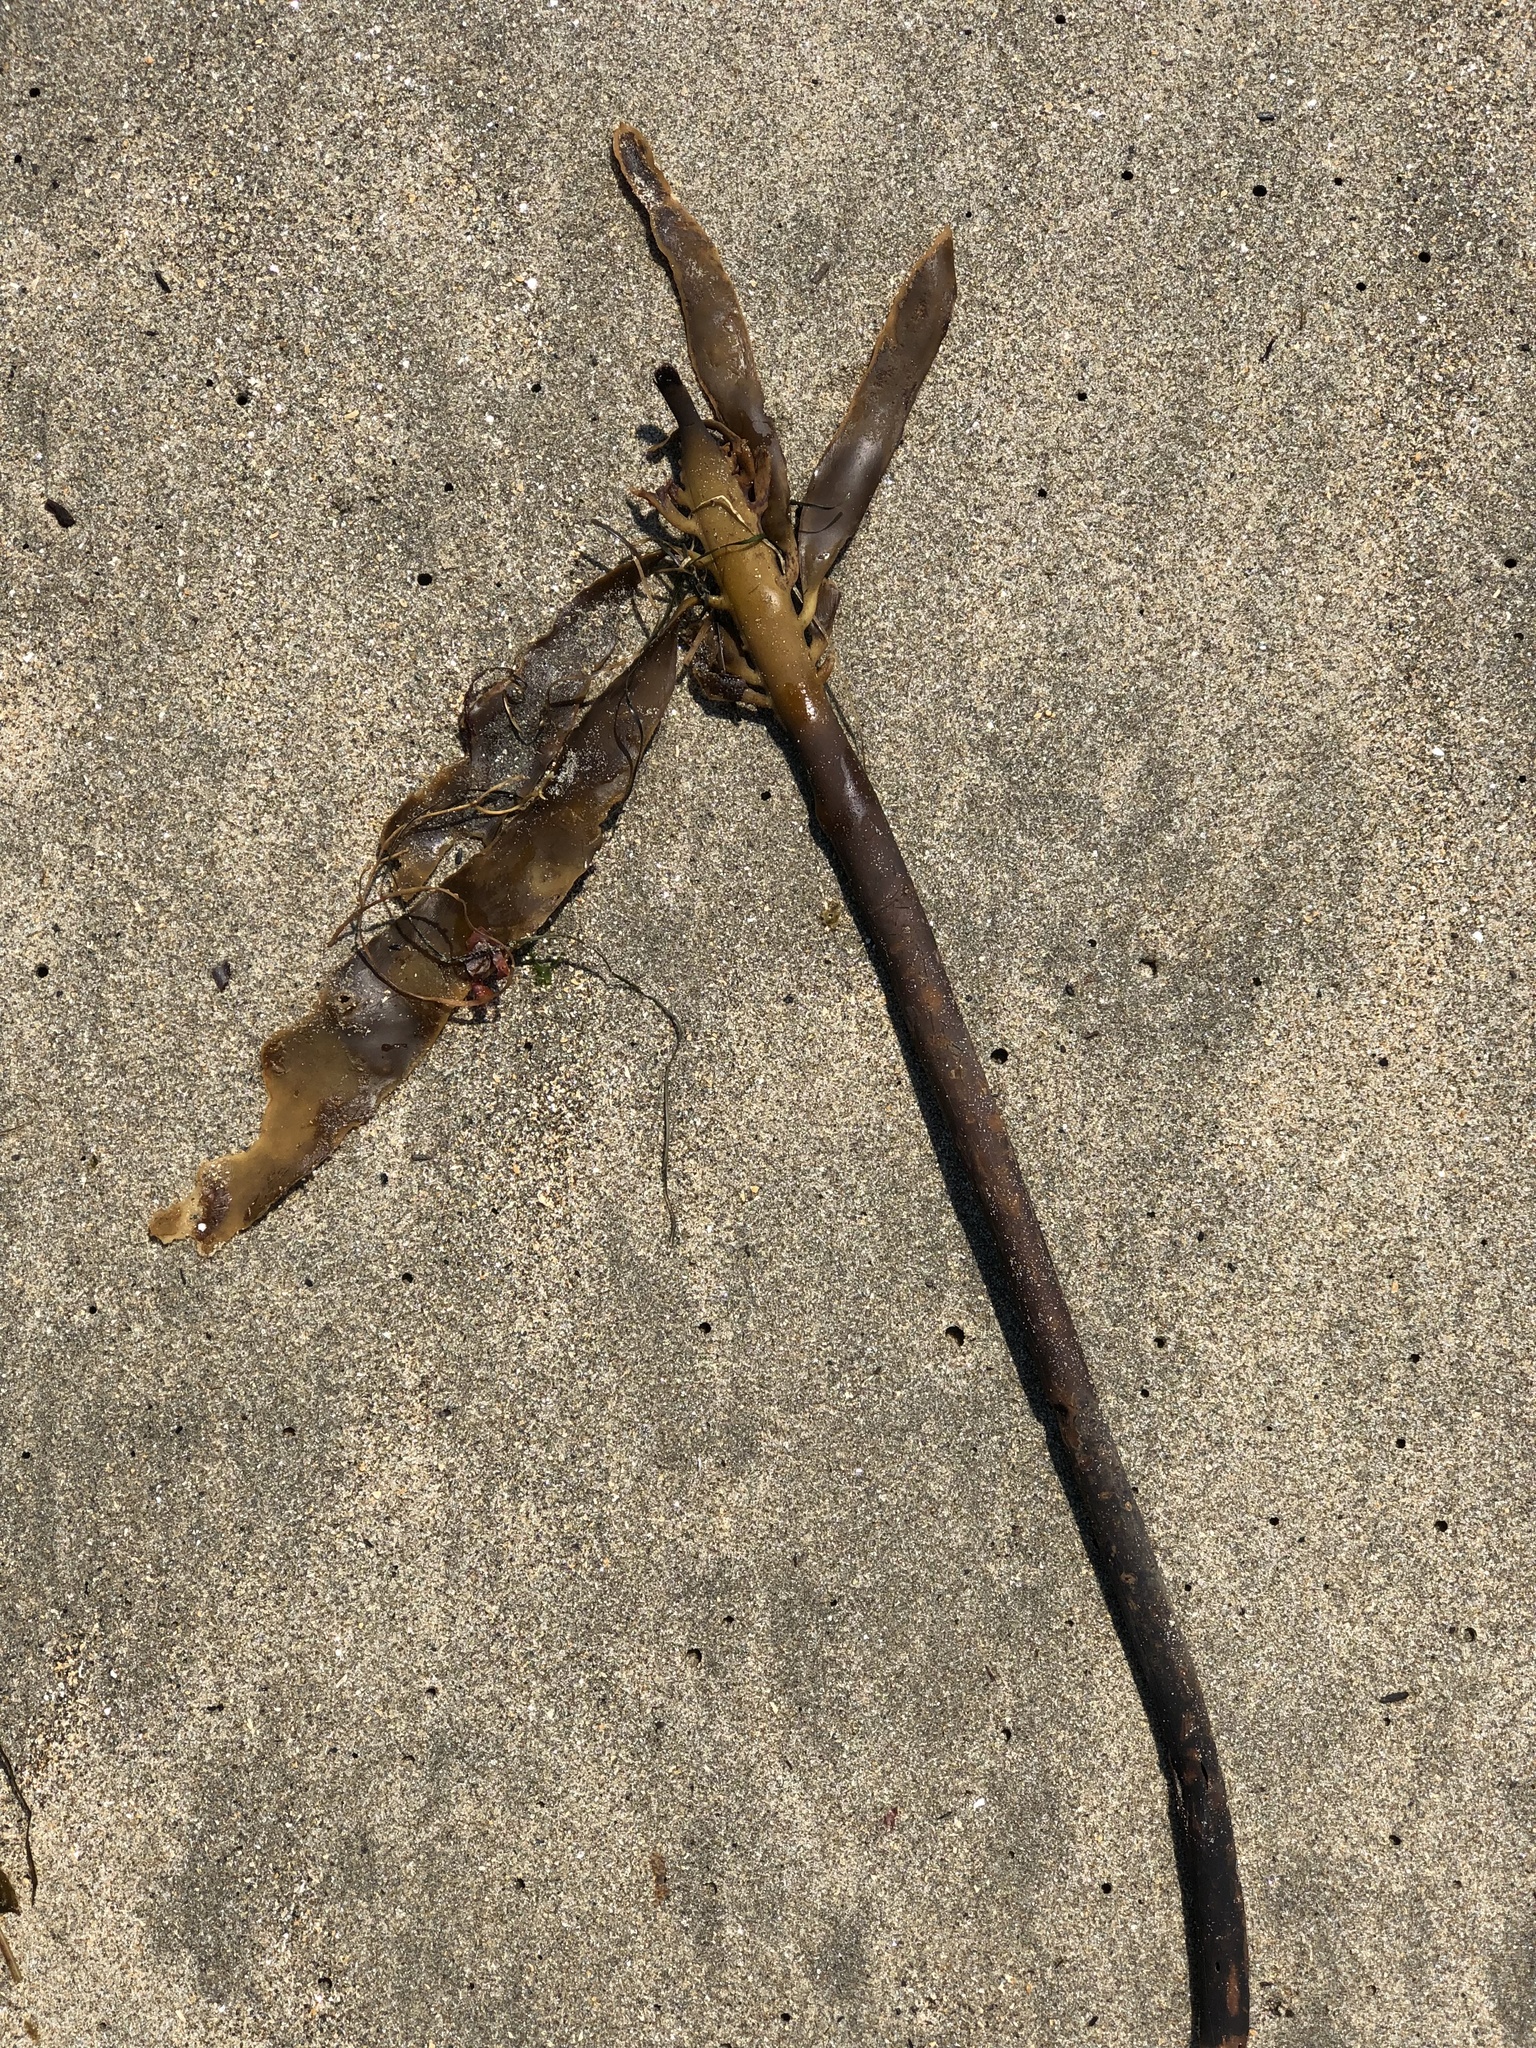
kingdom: Chromista
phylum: Ochrophyta
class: Phaeophyceae
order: Laminariales
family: Alariaceae
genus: Pterygophora
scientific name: Pterygophora californica
